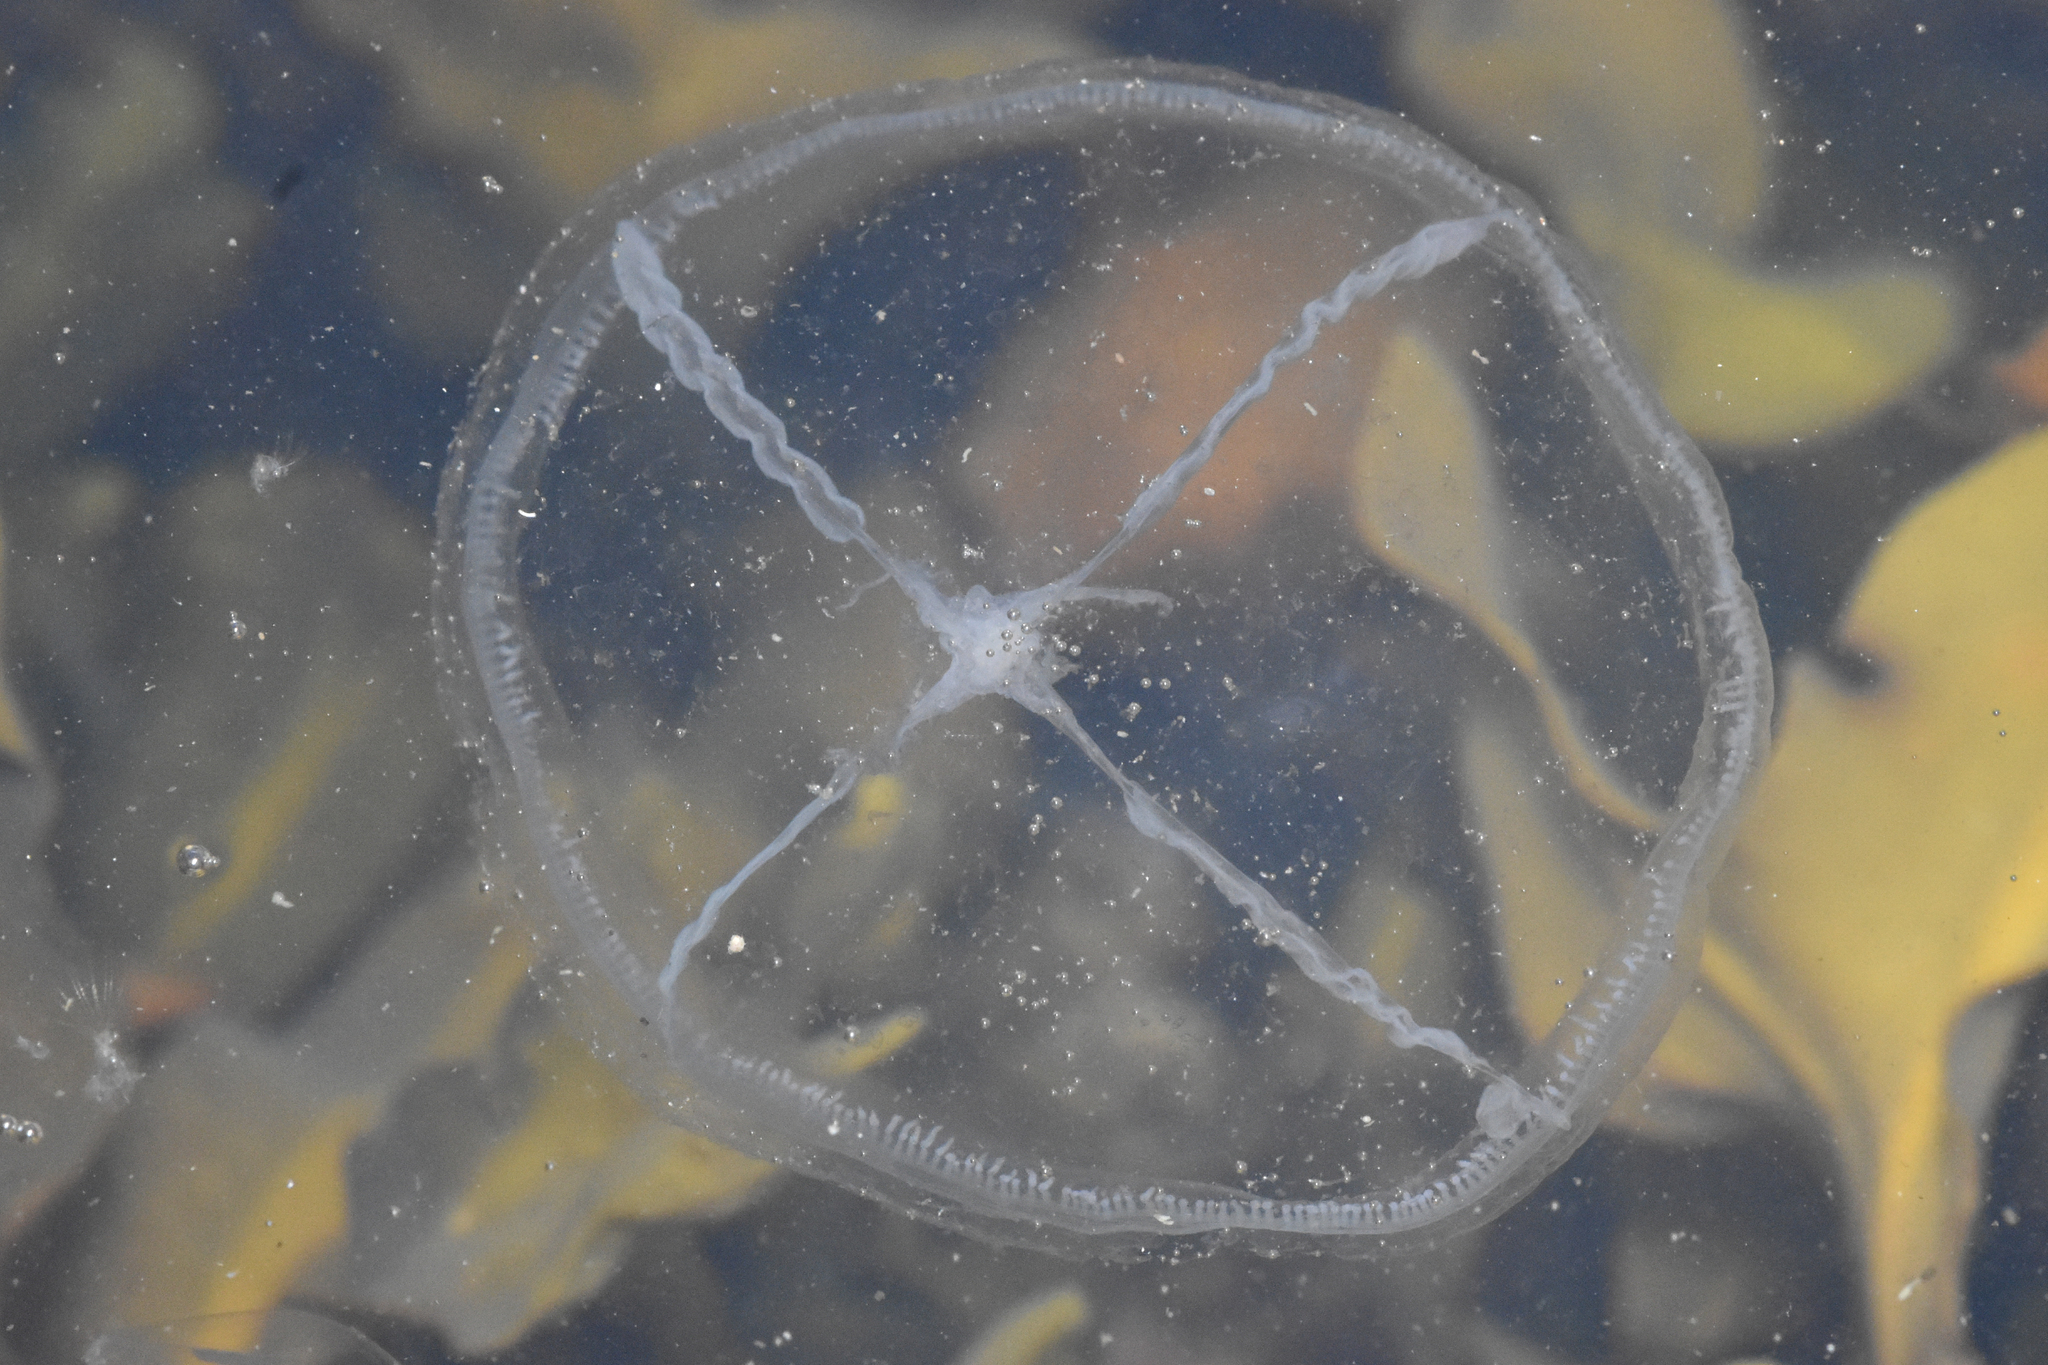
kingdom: Animalia
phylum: Cnidaria
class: Hydrozoa
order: Leptothecata
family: Mitrocomidae
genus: Mitrocoma
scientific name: Mitrocoma cellularia
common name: Cross jellyfish
